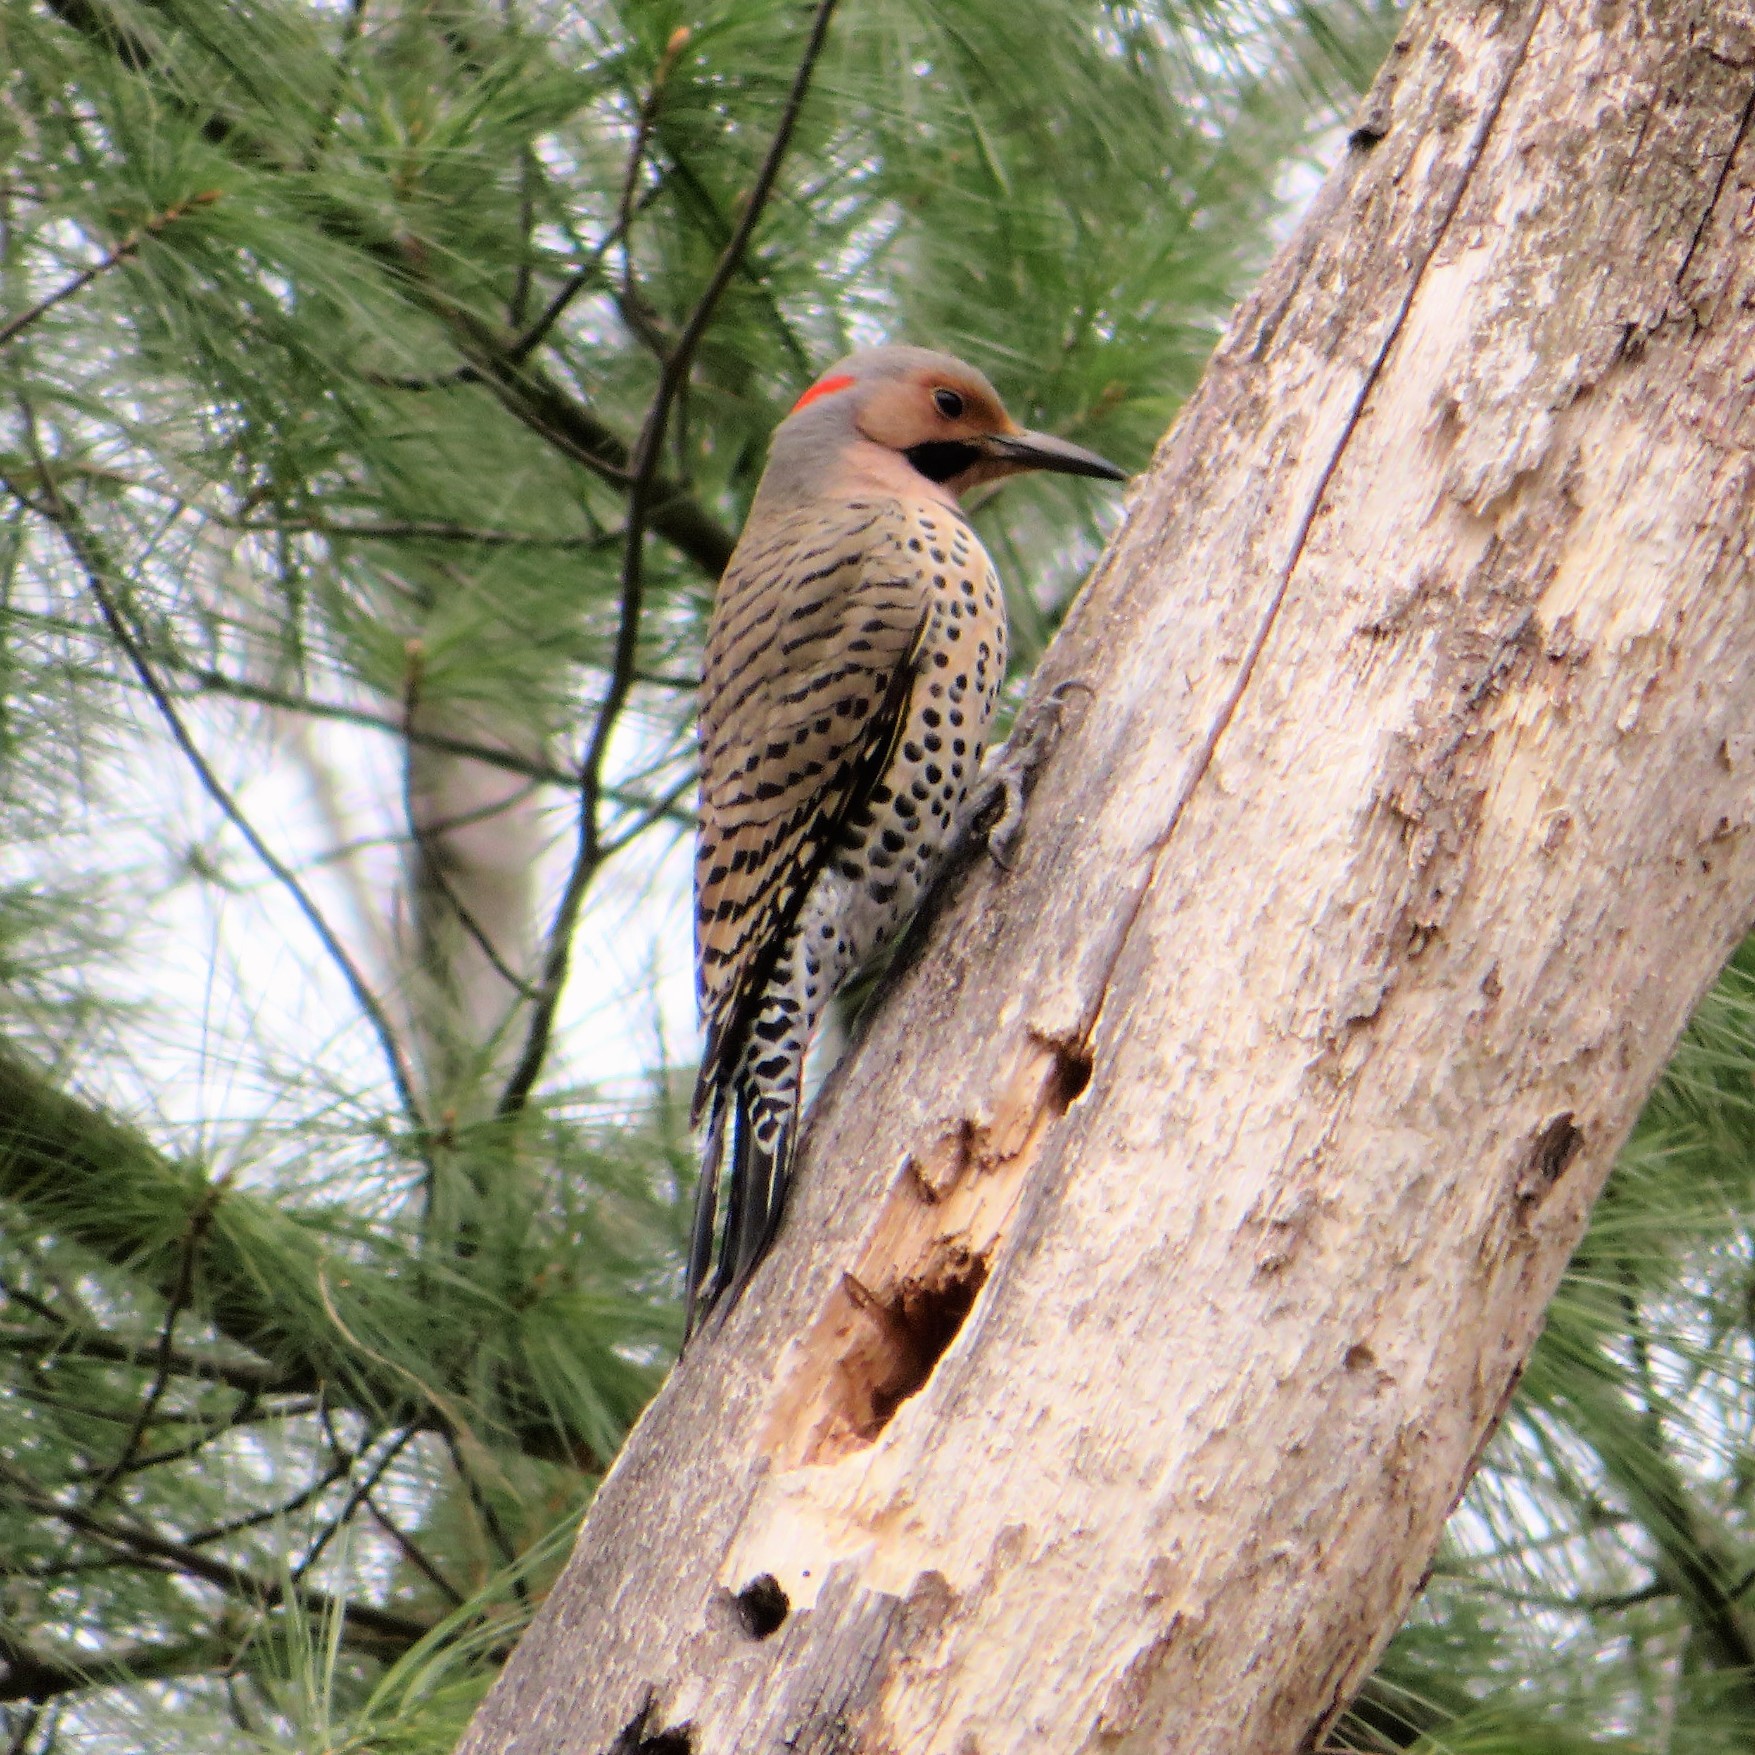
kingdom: Animalia
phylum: Chordata
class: Aves
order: Piciformes
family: Picidae
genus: Colaptes
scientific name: Colaptes auratus
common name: Northern flicker
